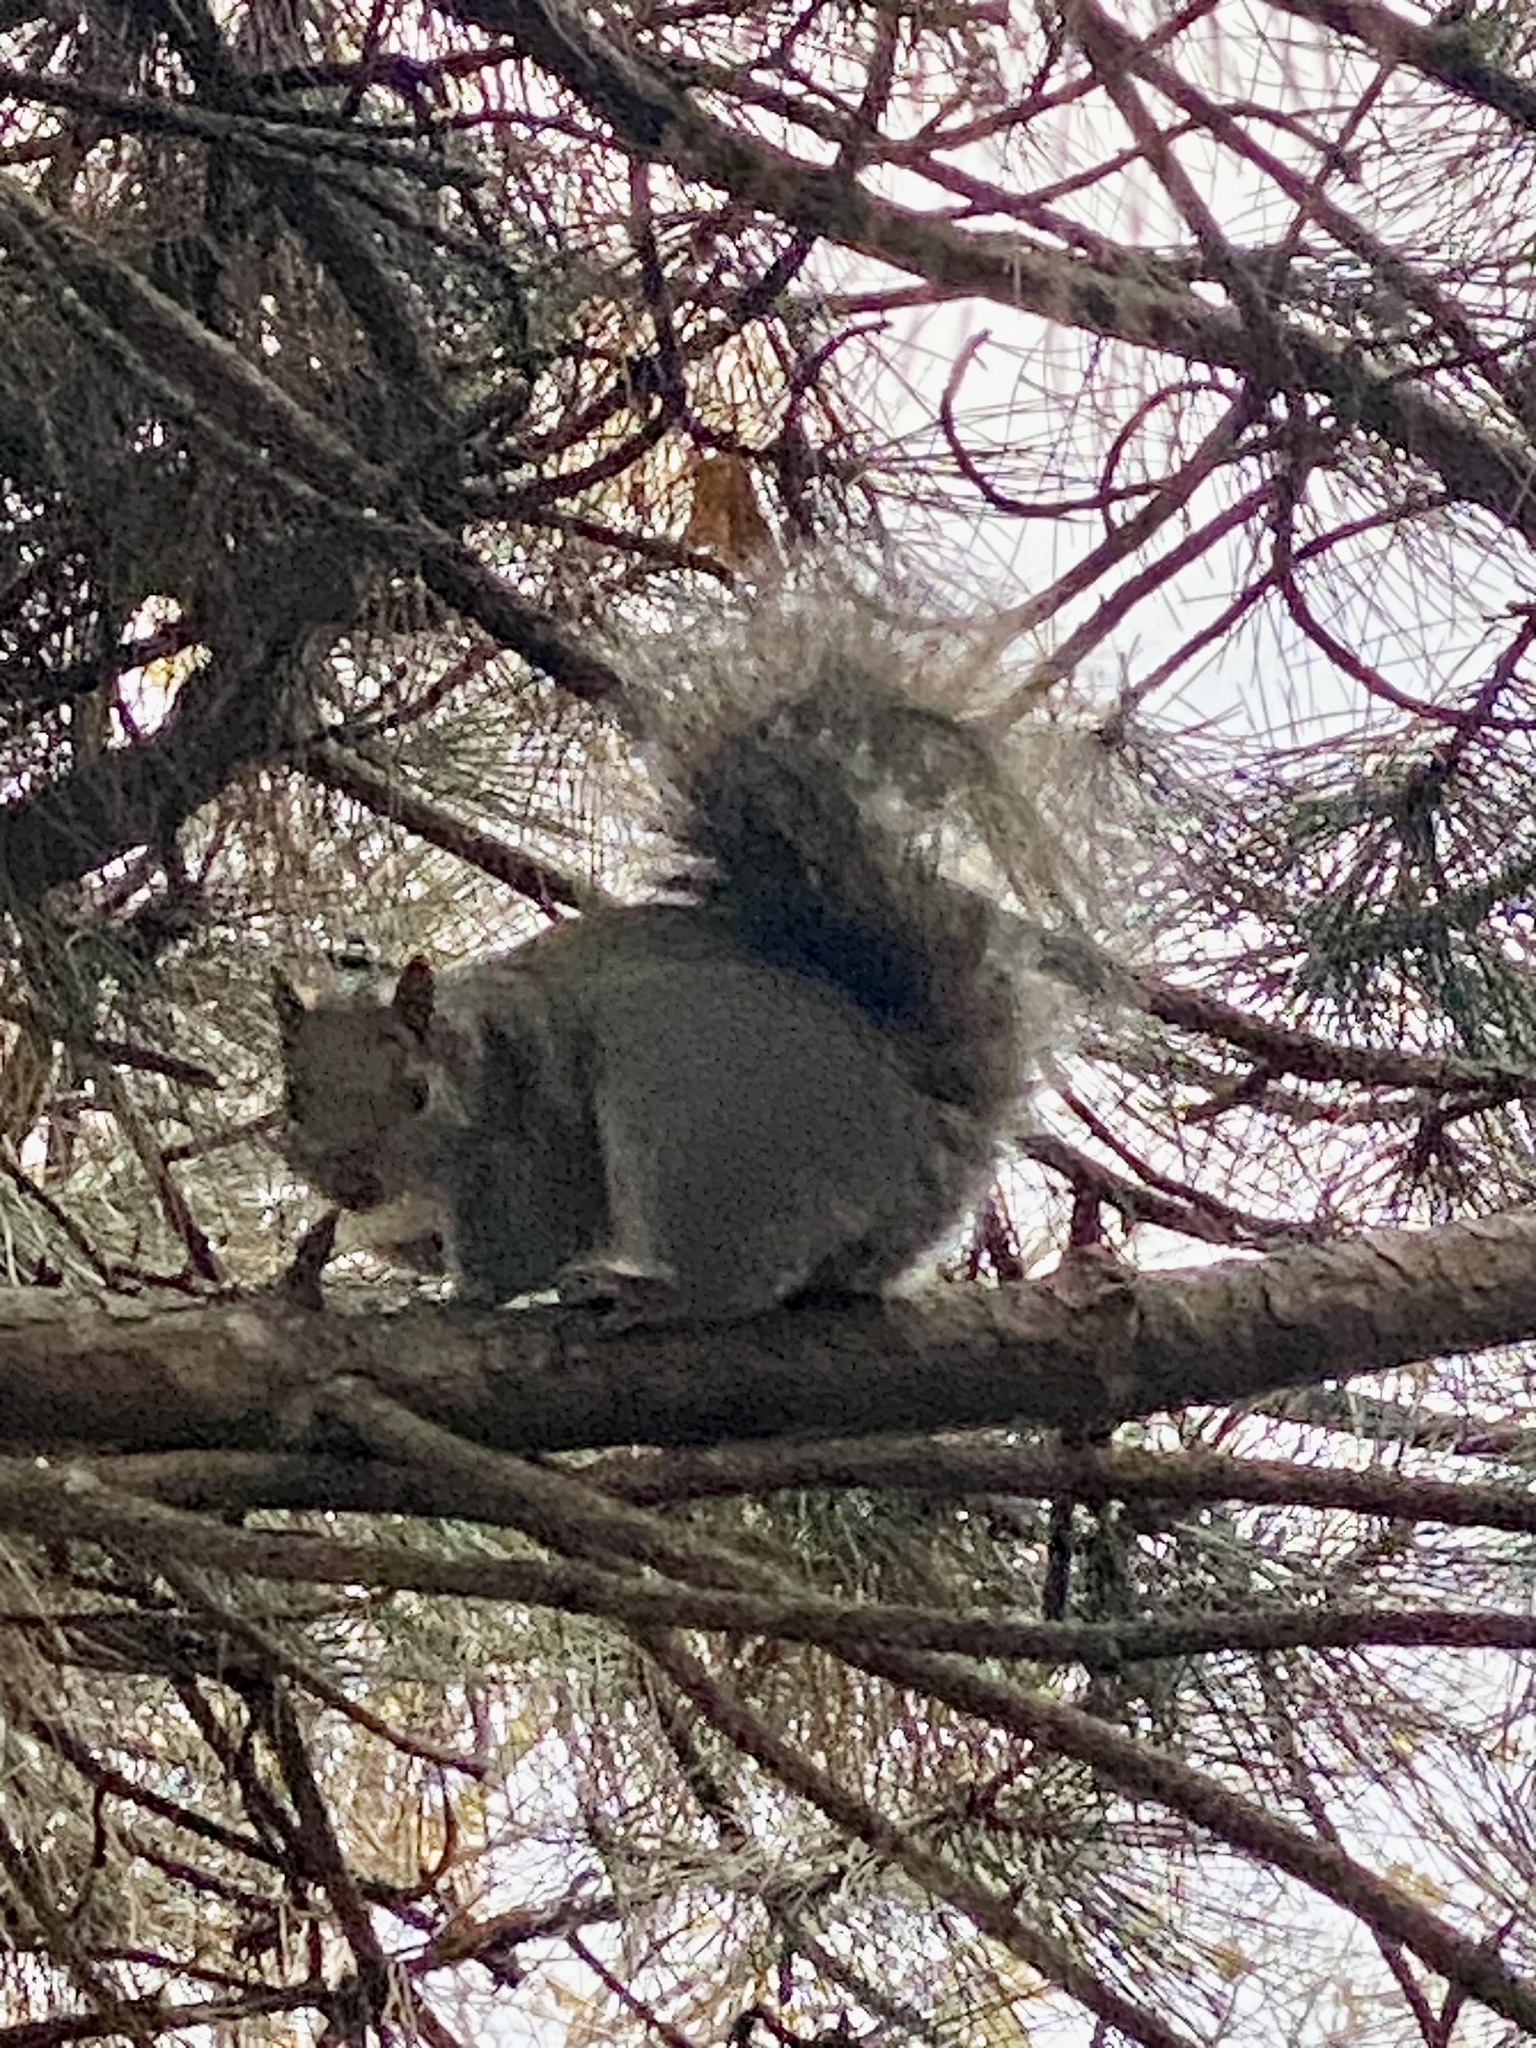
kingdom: Animalia
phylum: Chordata
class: Mammalia
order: Rodentia
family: Sciuridae
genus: Sciurus
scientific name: Sciurus carolinensis
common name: Eastern gray squirrel
